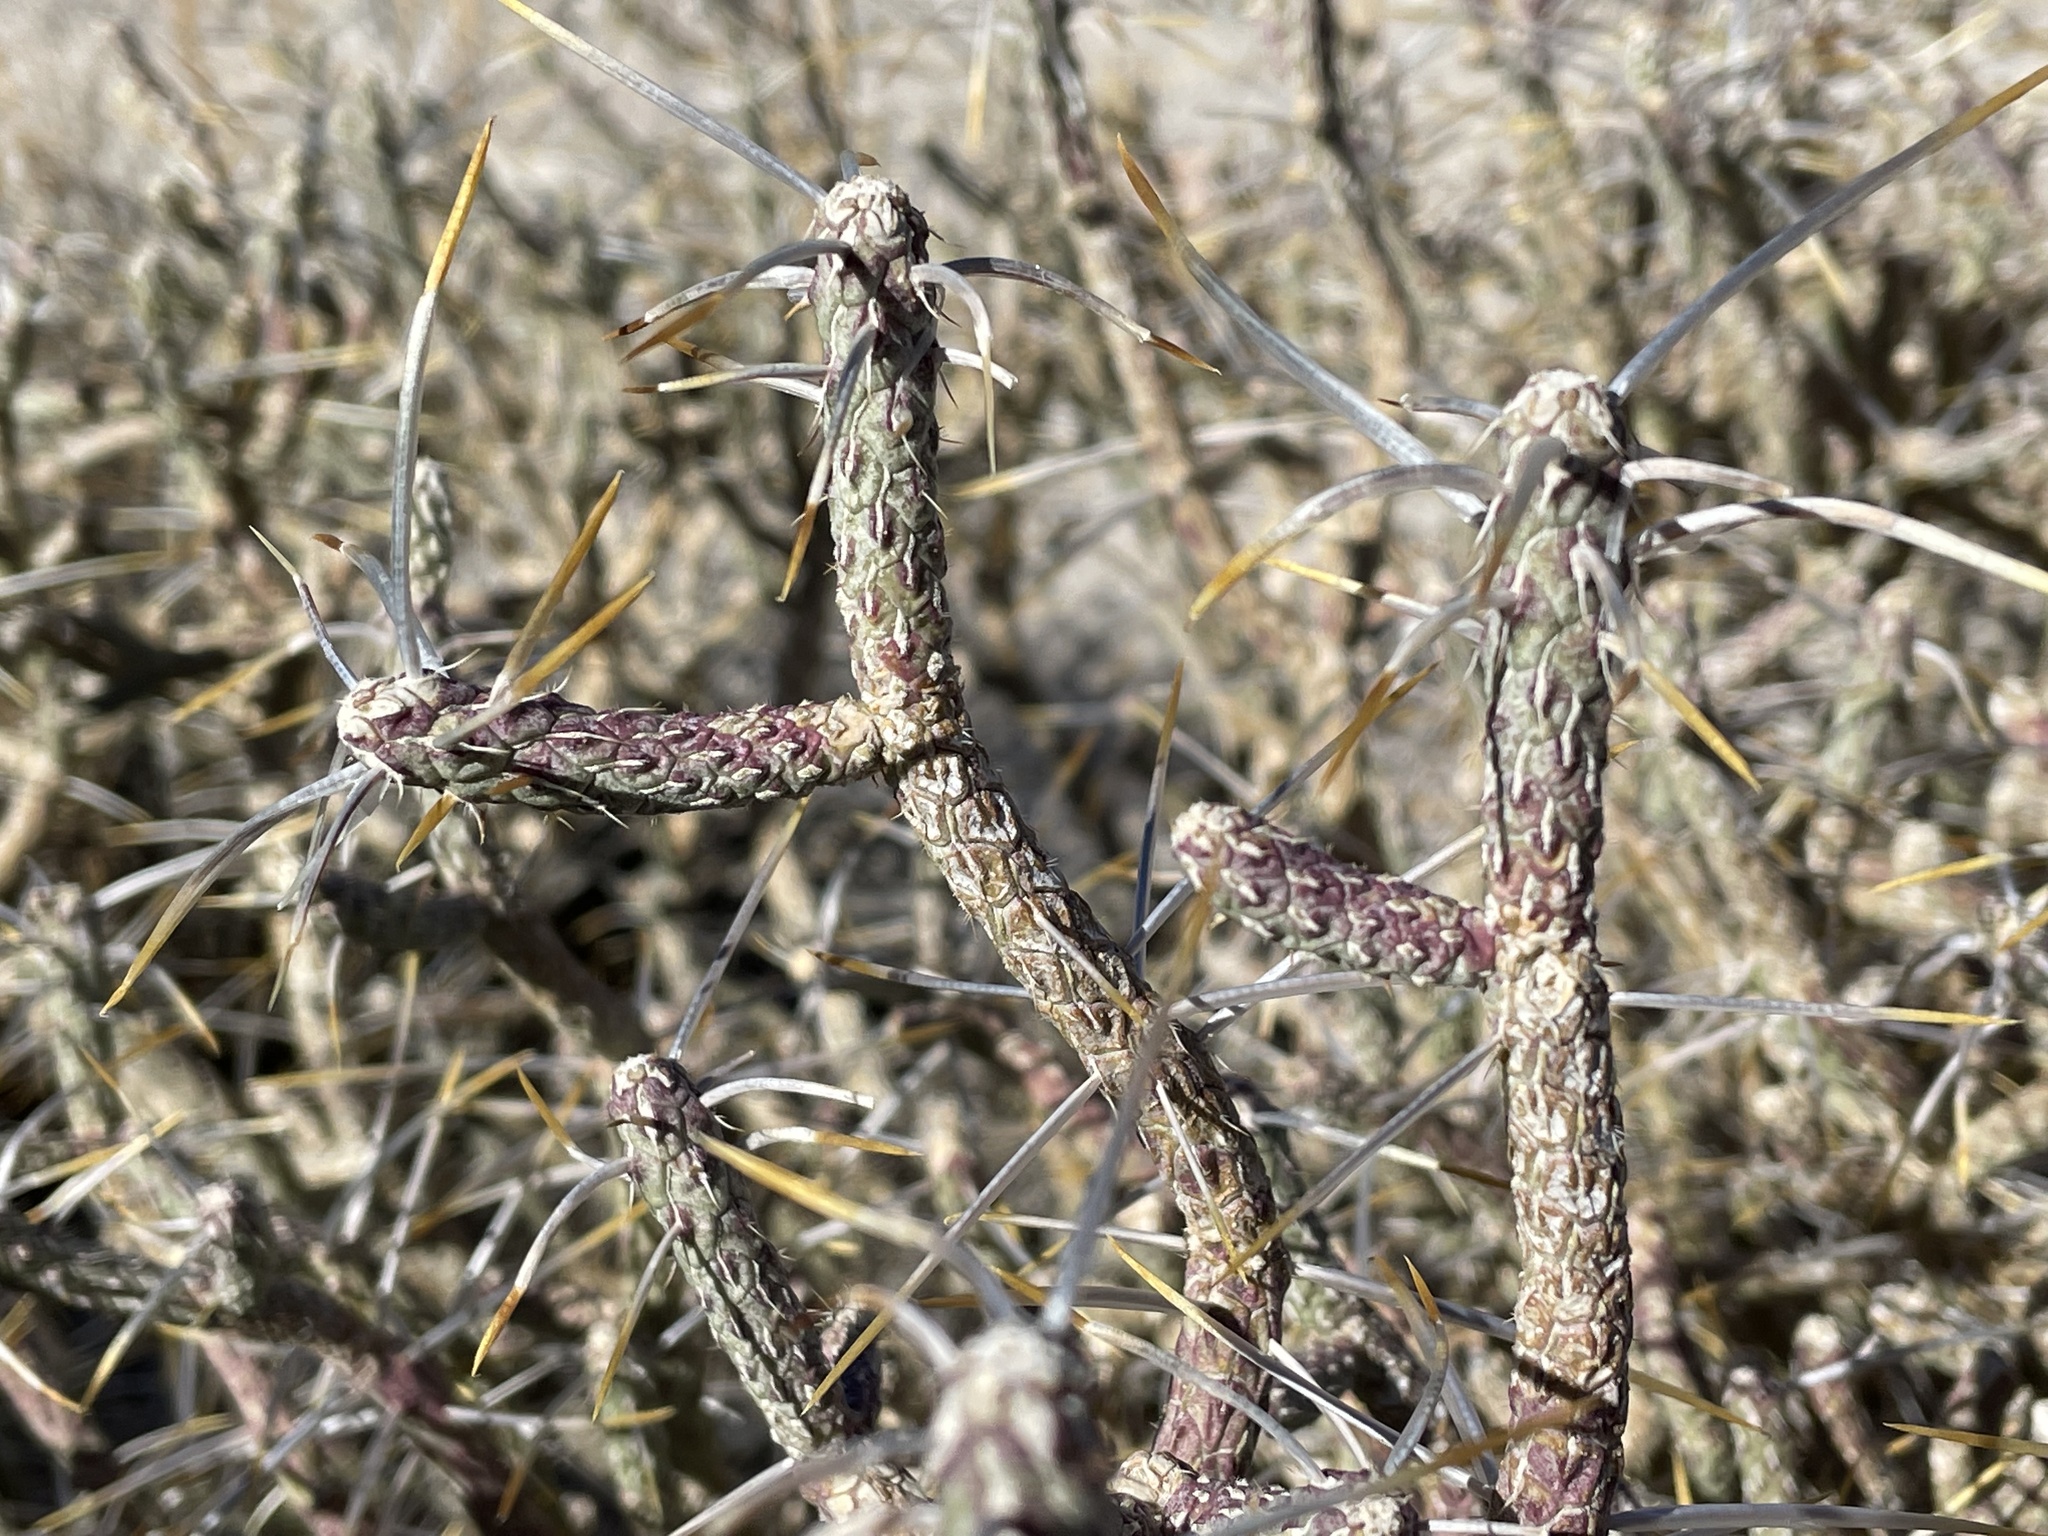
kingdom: Plantae
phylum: Tracheophyta
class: Magnoliopsida
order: Caryophyllales
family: Cactaceae
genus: Cylindropuntia
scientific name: Cylindropuntia ramosissima
